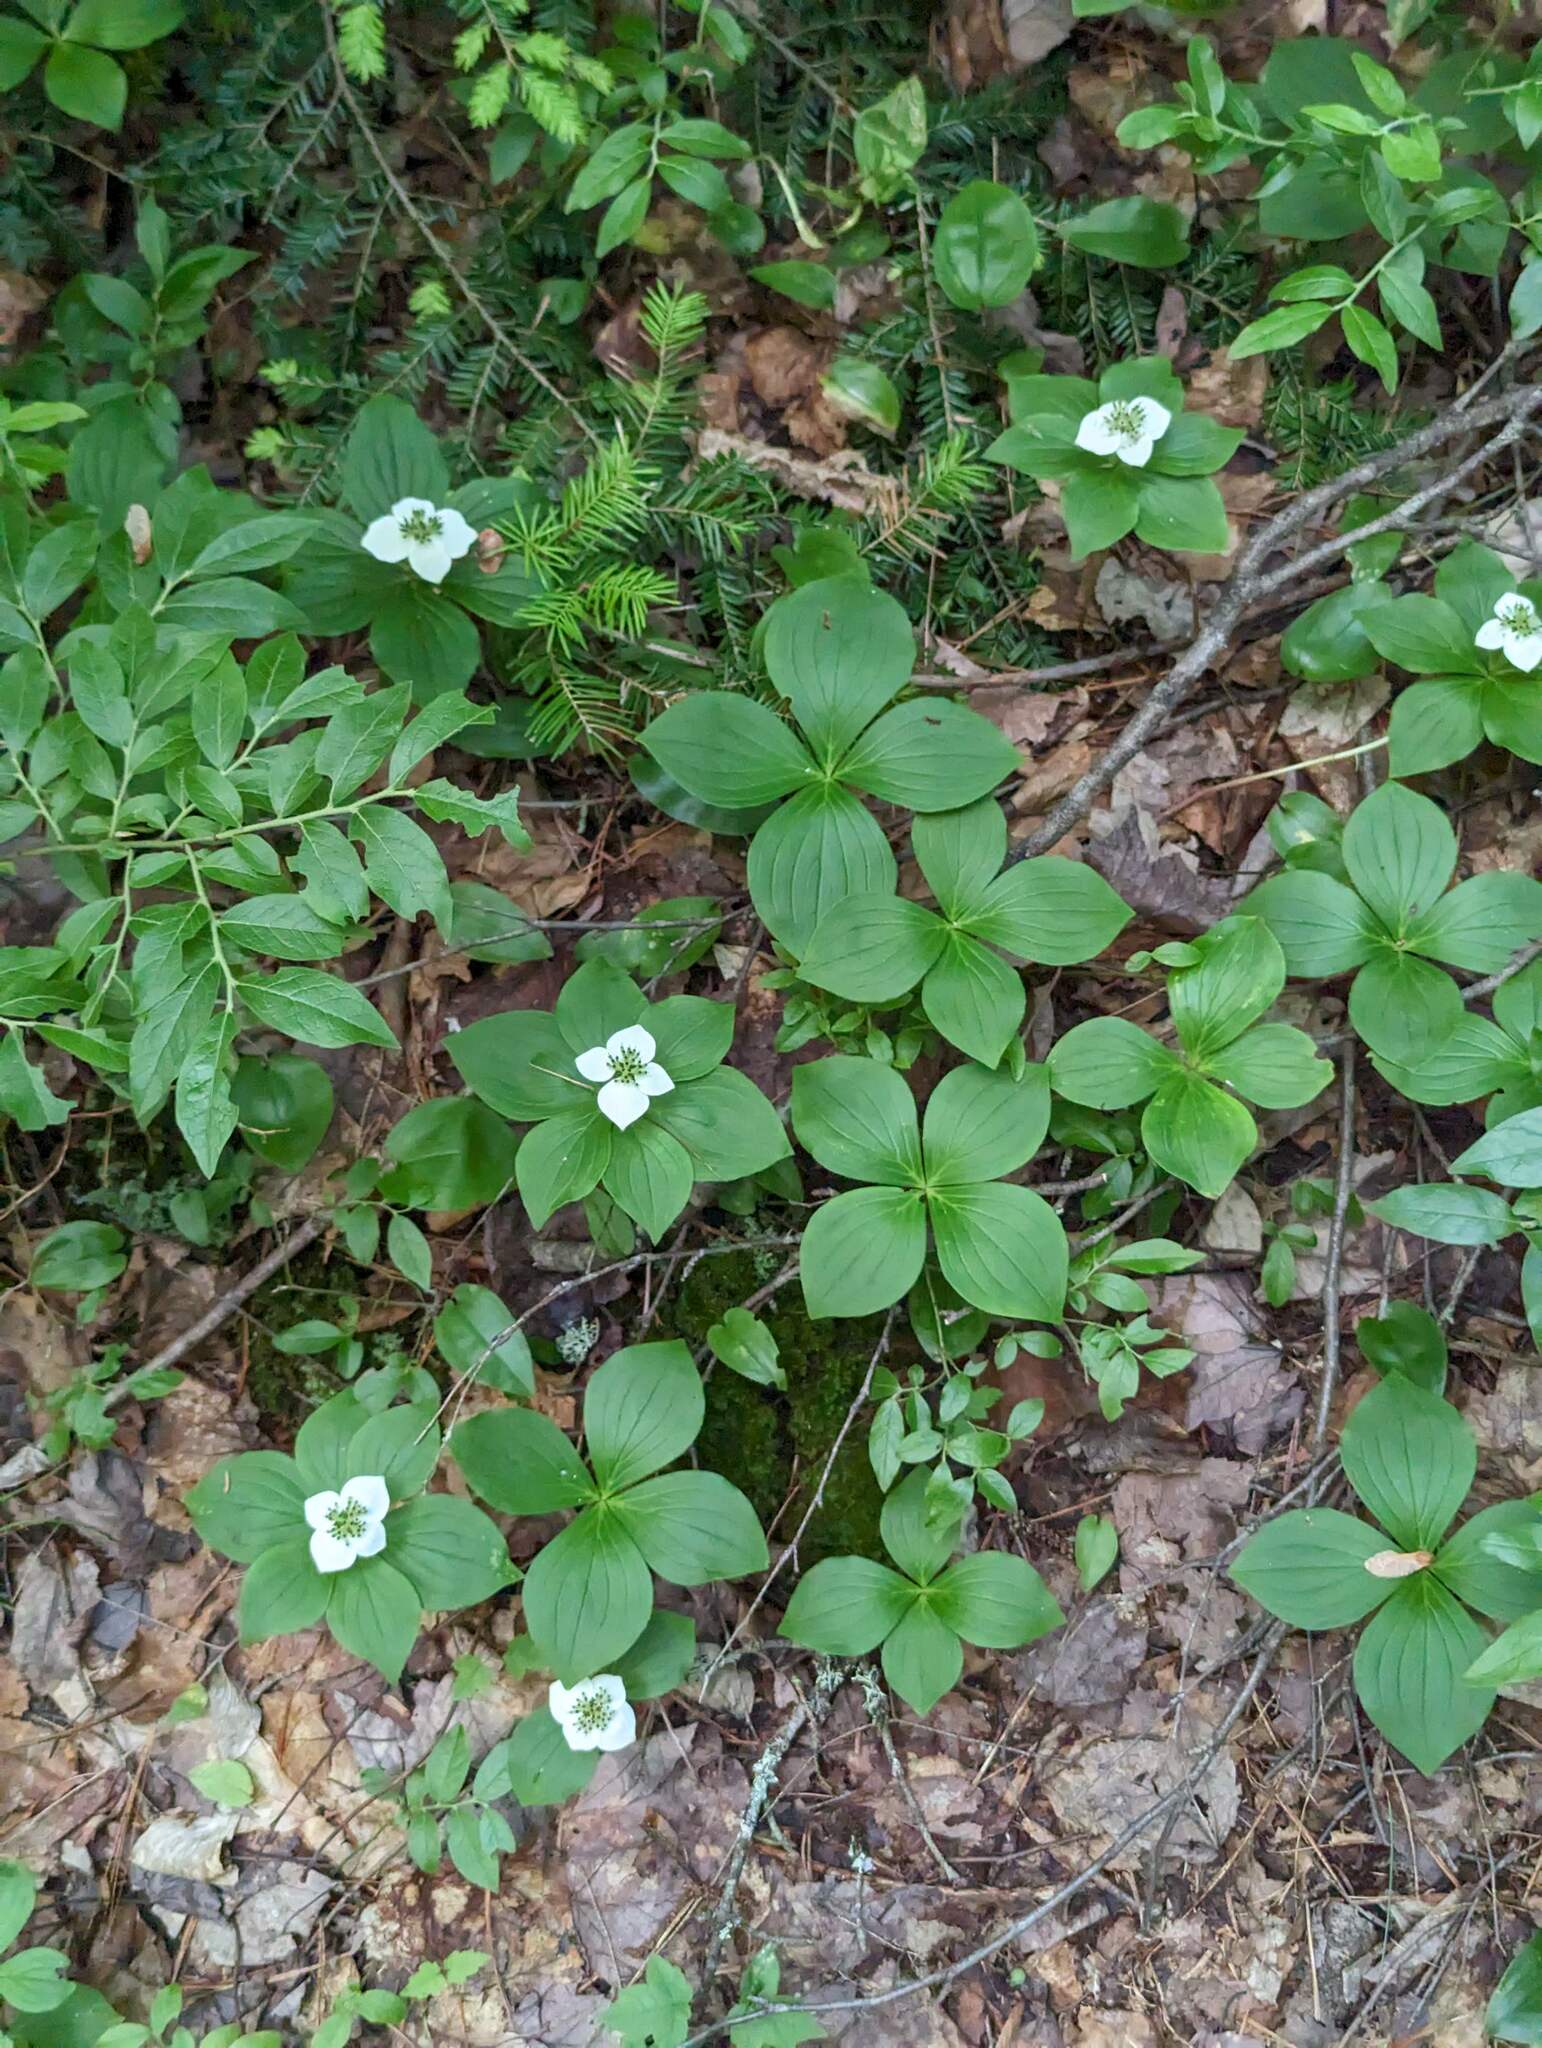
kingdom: Plantae
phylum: Tracheophyta
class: Magnoliopsida
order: Cornales
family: Cornaceae
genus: Cornus
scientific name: Cornus canadensis
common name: Creeping dogwood
